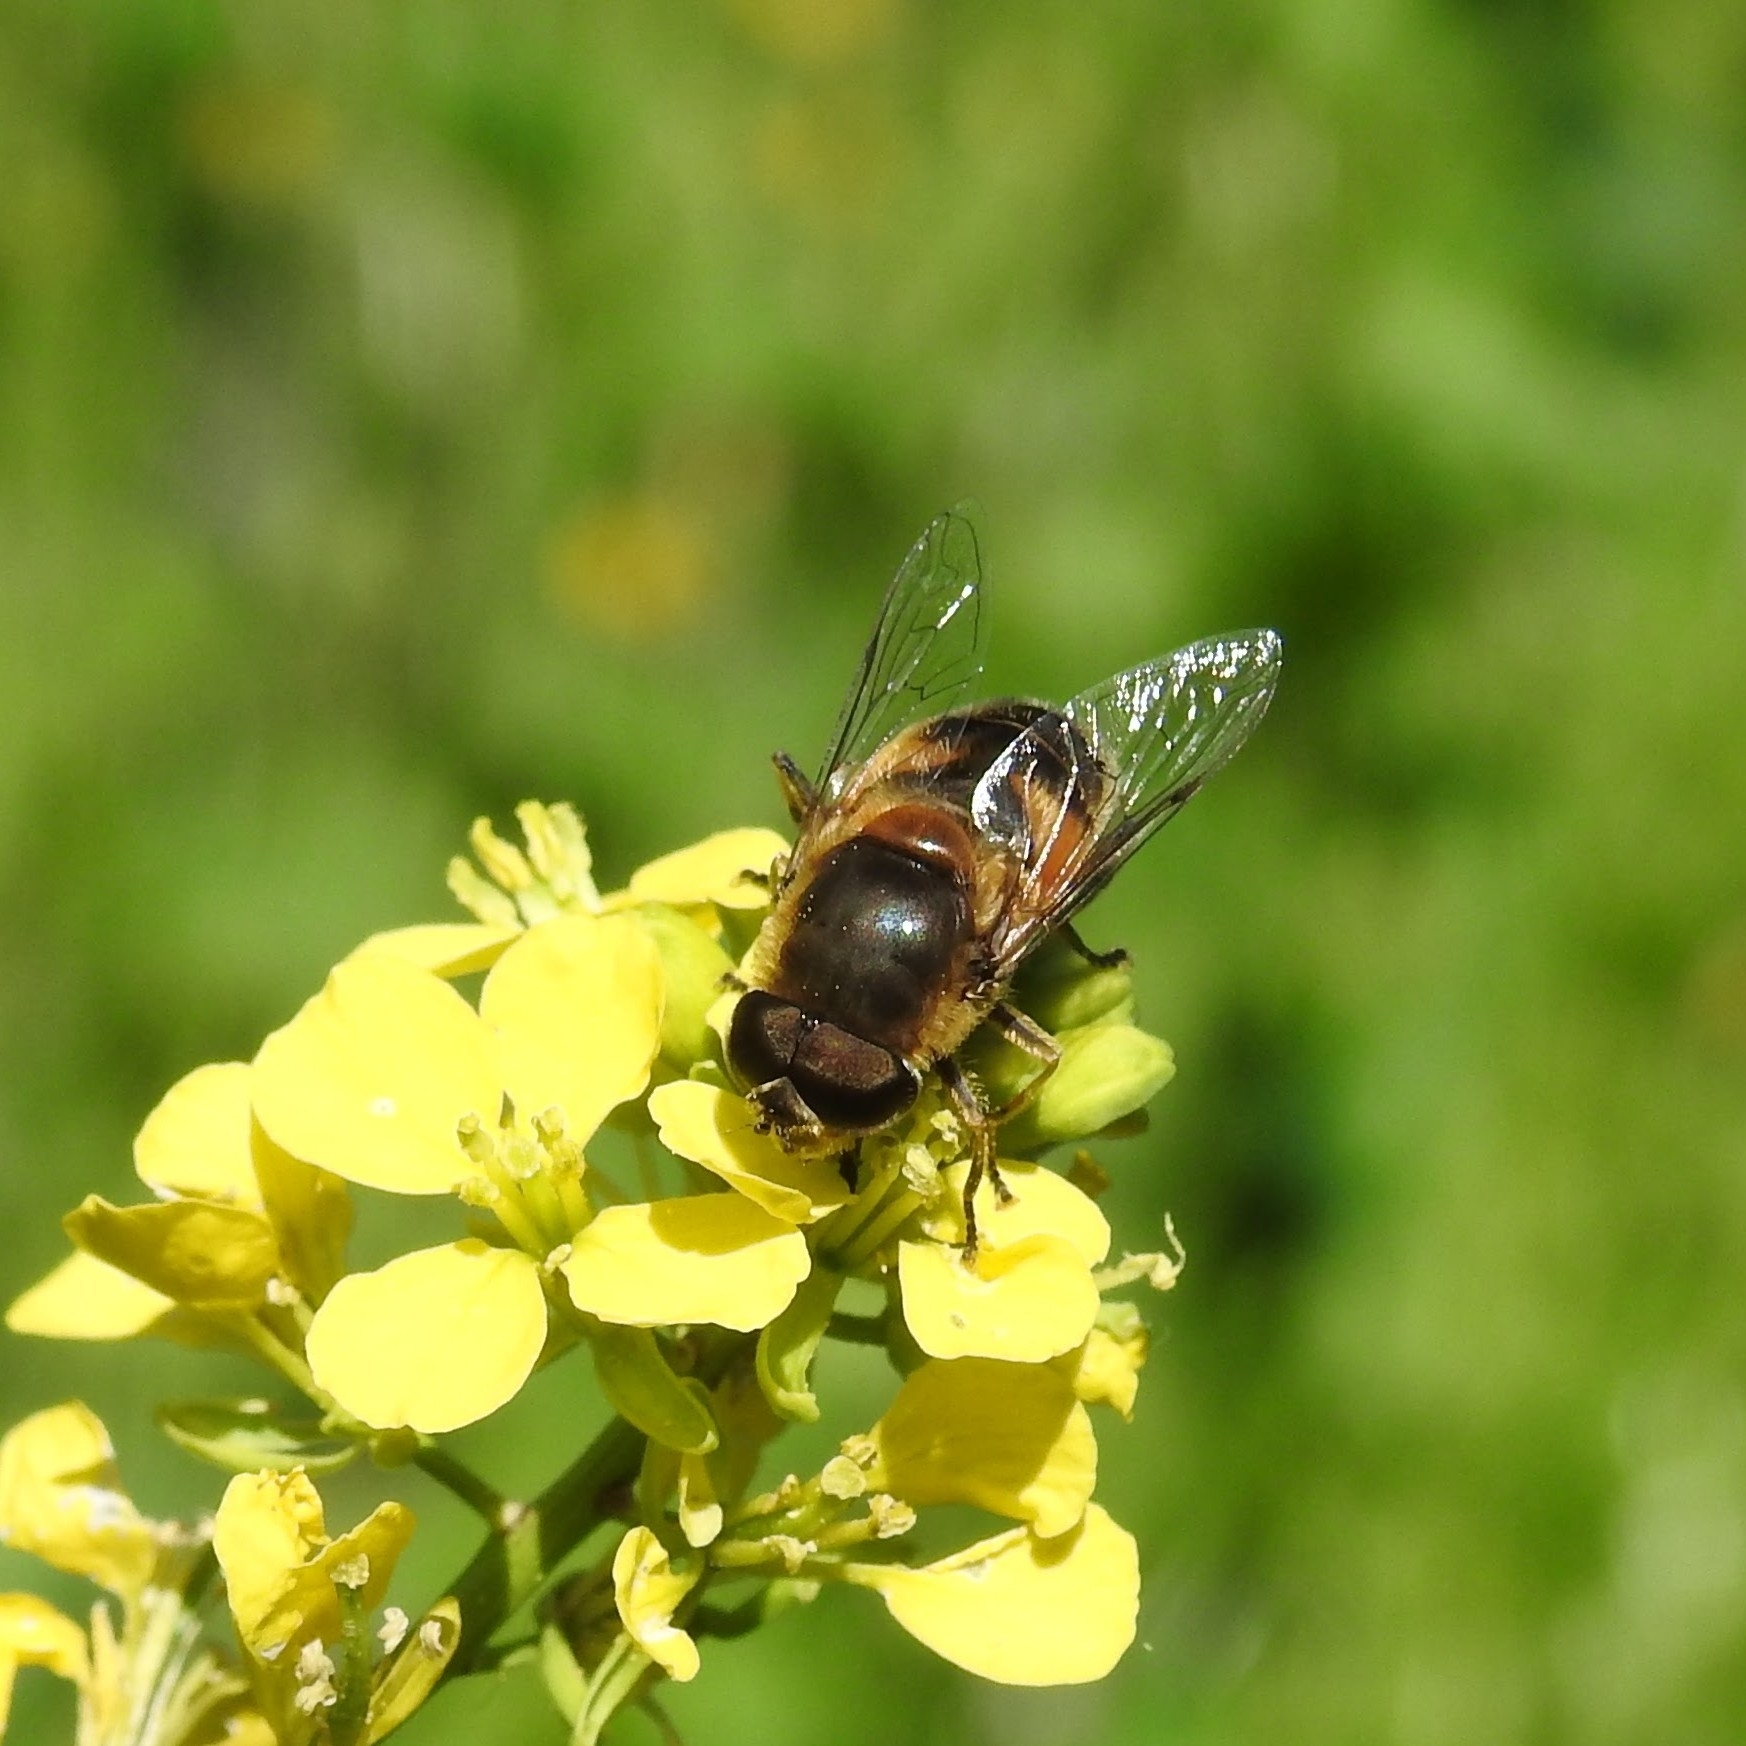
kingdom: Animalia
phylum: Arthropoda
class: Insecta
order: Diptera
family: Syrphidae
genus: Eristalis
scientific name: Eristalis pertinax
